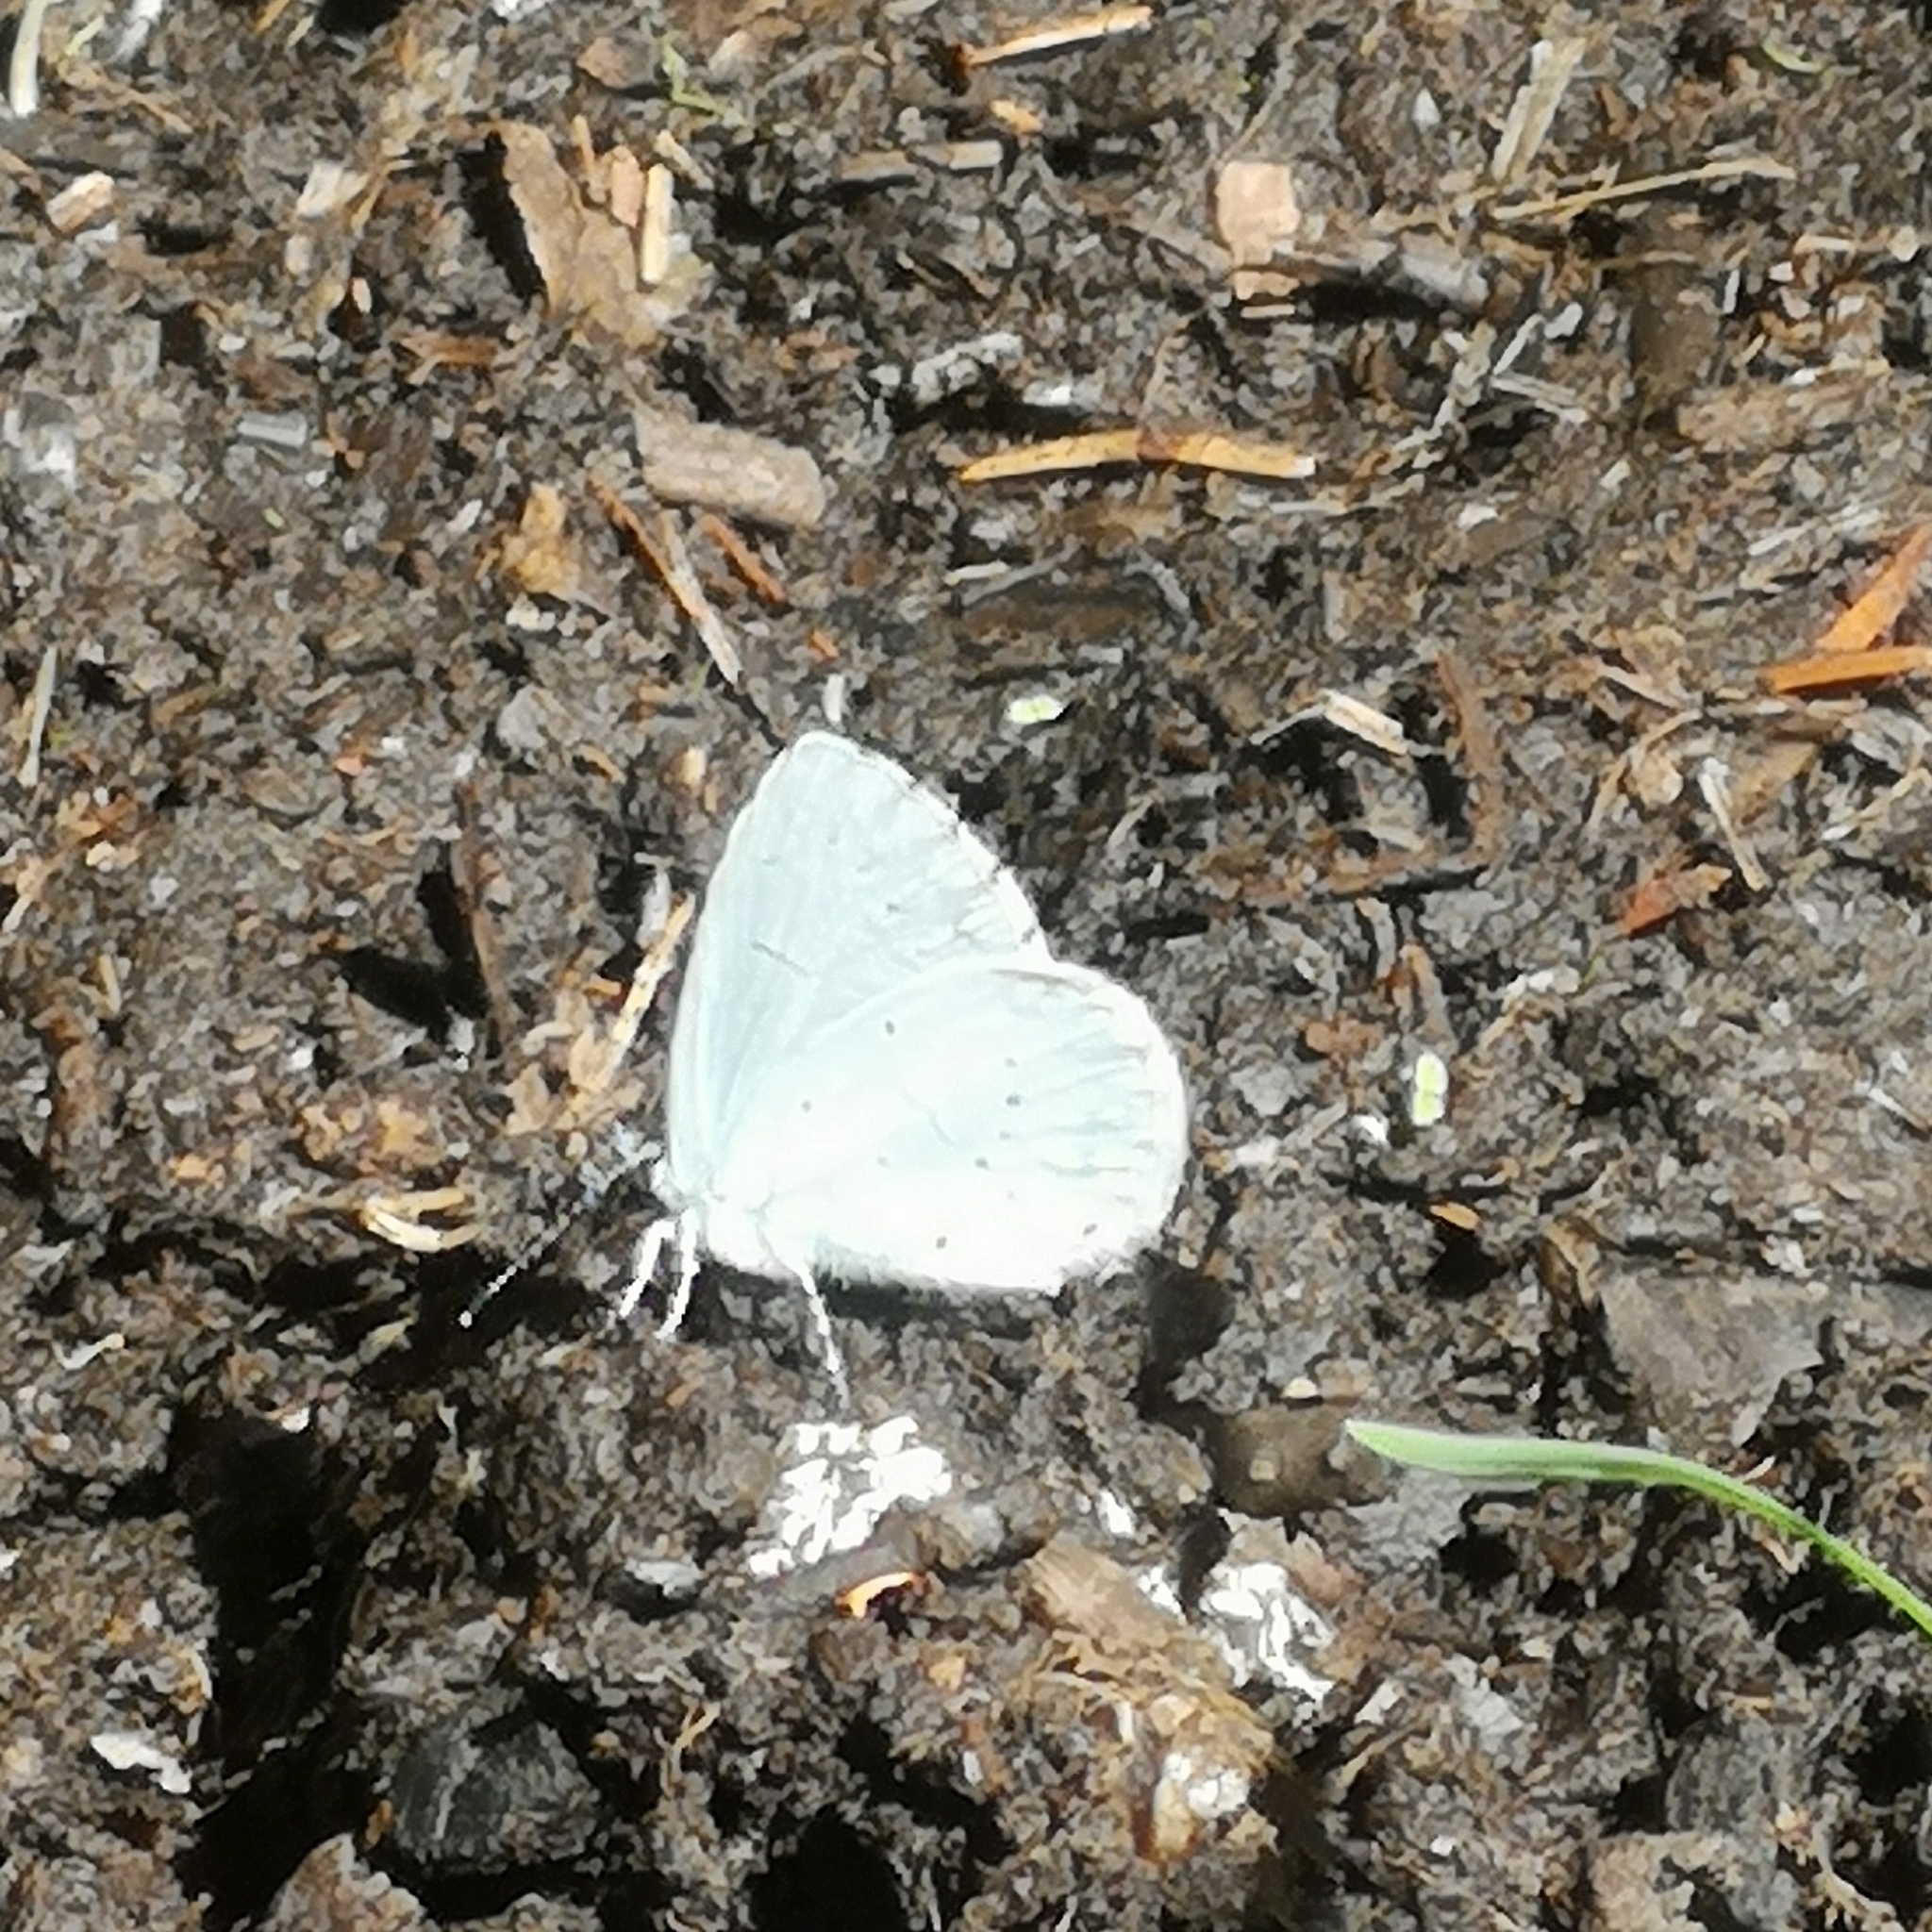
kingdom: Animalia
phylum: Arthropoda
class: Insecta
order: Lepidoptera
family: Lycaenidae
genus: Celastrina
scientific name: Celastrina argiolus
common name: Holly blue
